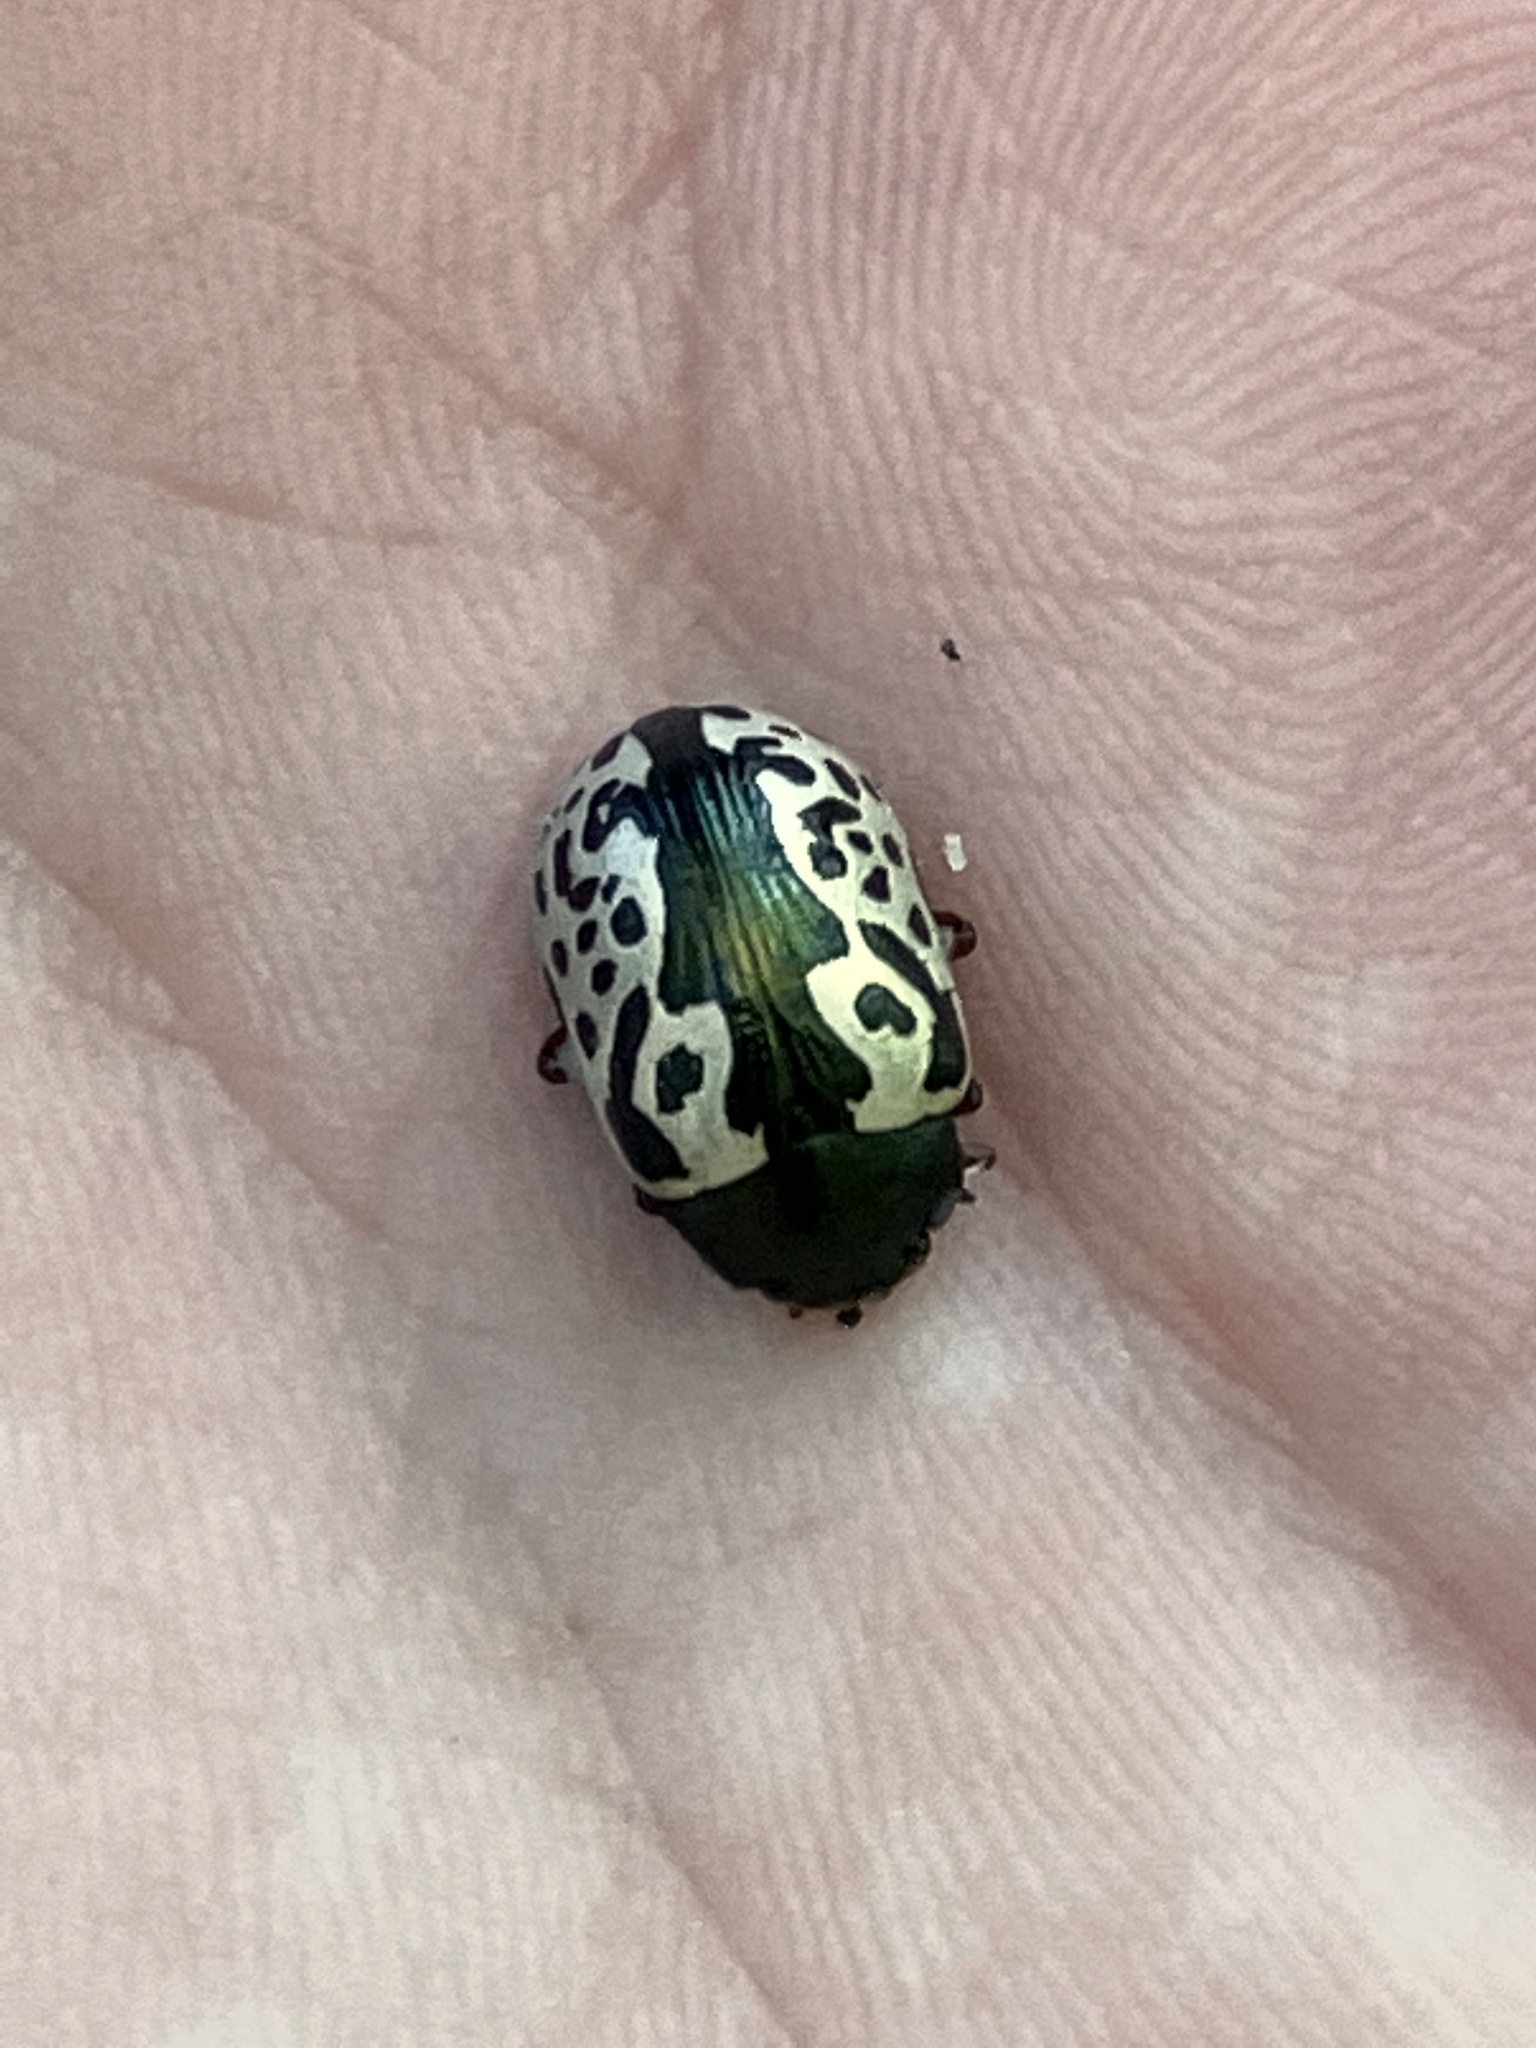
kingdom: Animalia
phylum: Arthropoda
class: Insecta
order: Coleoptera
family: Chrysomelidae
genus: Calligrapha
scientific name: Calligrapha confluens
